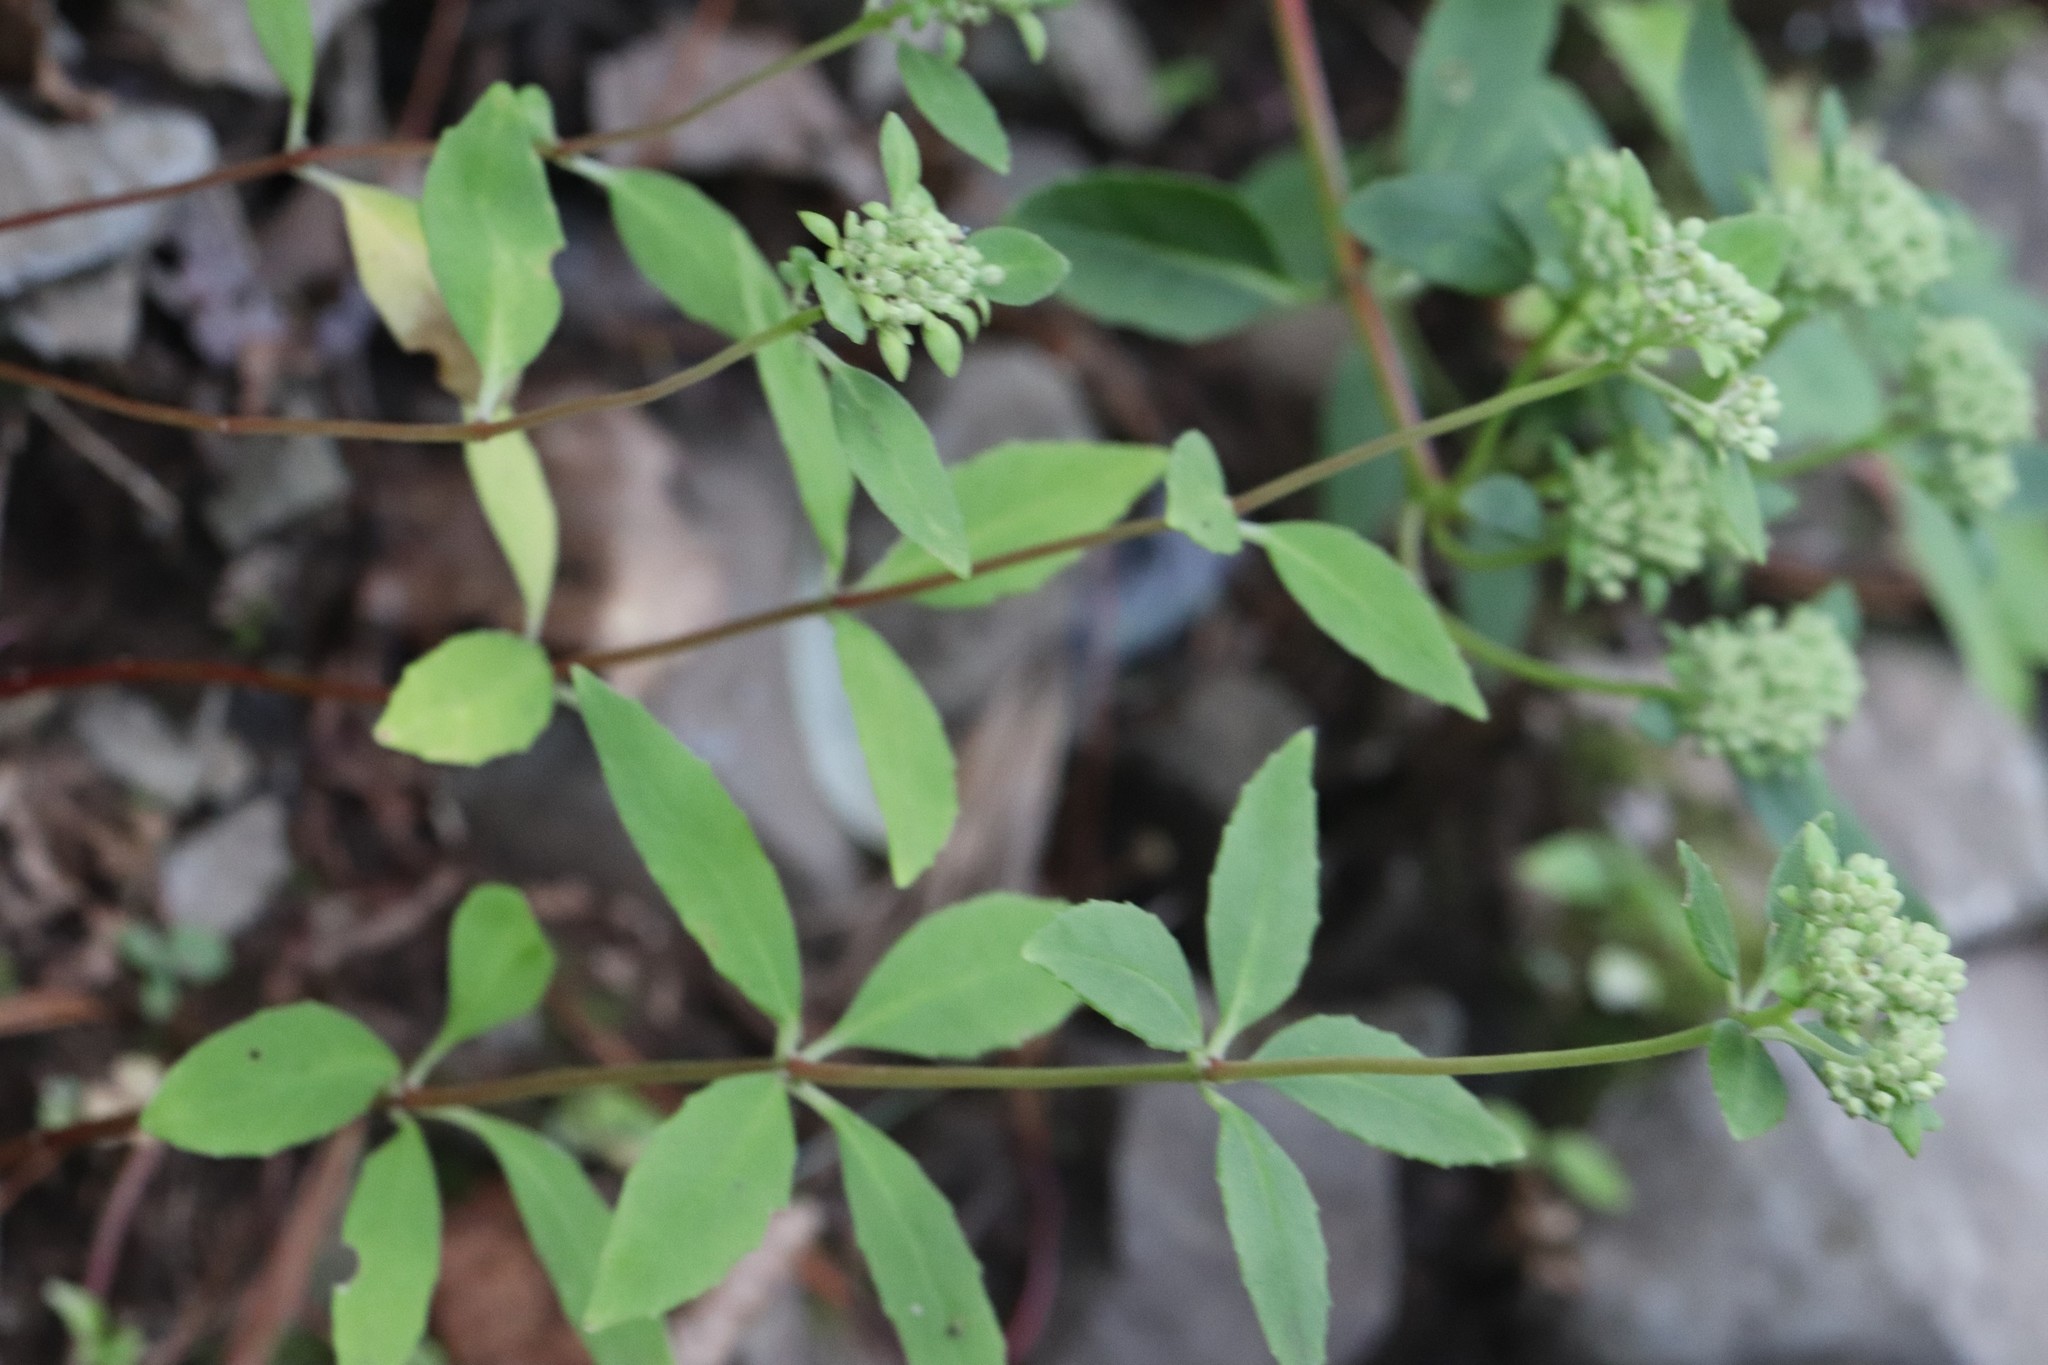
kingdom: Plantae
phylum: Tracheophyta
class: Magnoliopsida
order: Saxifragales
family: Crassulaceae
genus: Hylotelephium
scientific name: Hylotelephium viviparum
